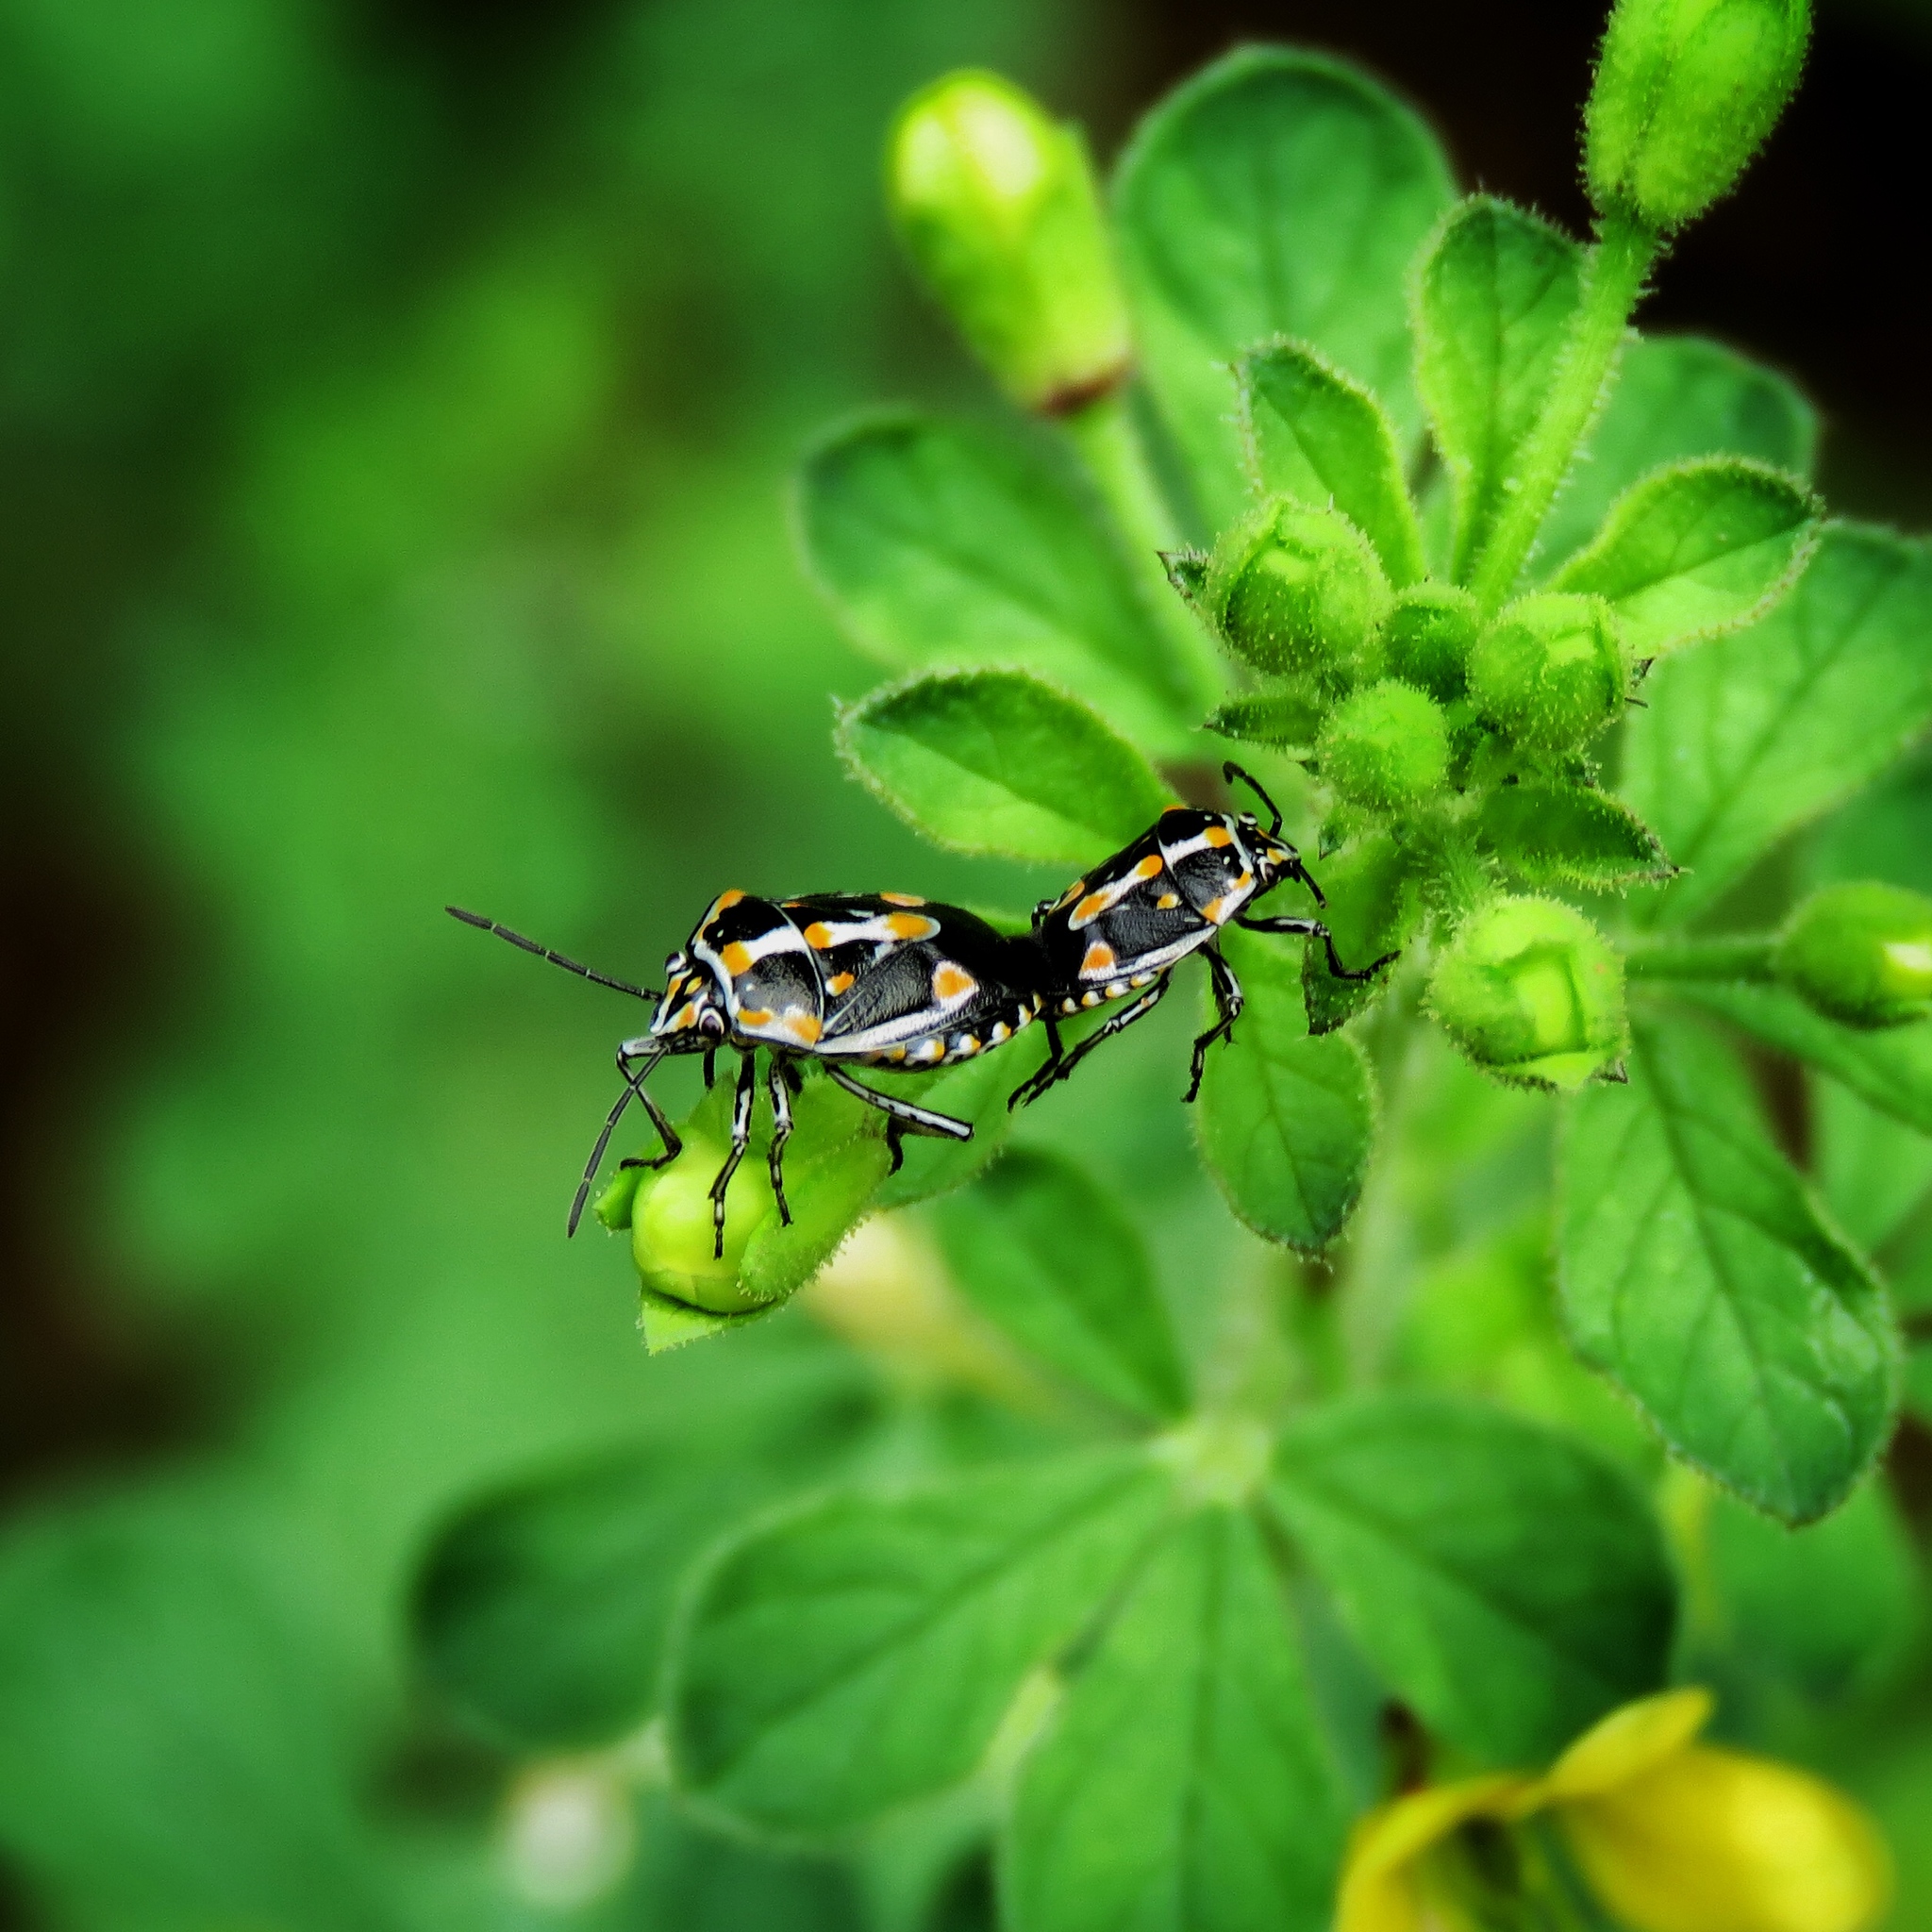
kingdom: Animalia
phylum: Arthropoda
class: Insecta
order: Hemiptera
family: Pentatomidae
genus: Bagrada
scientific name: Bagrada hilaris
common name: Bagrada bug
